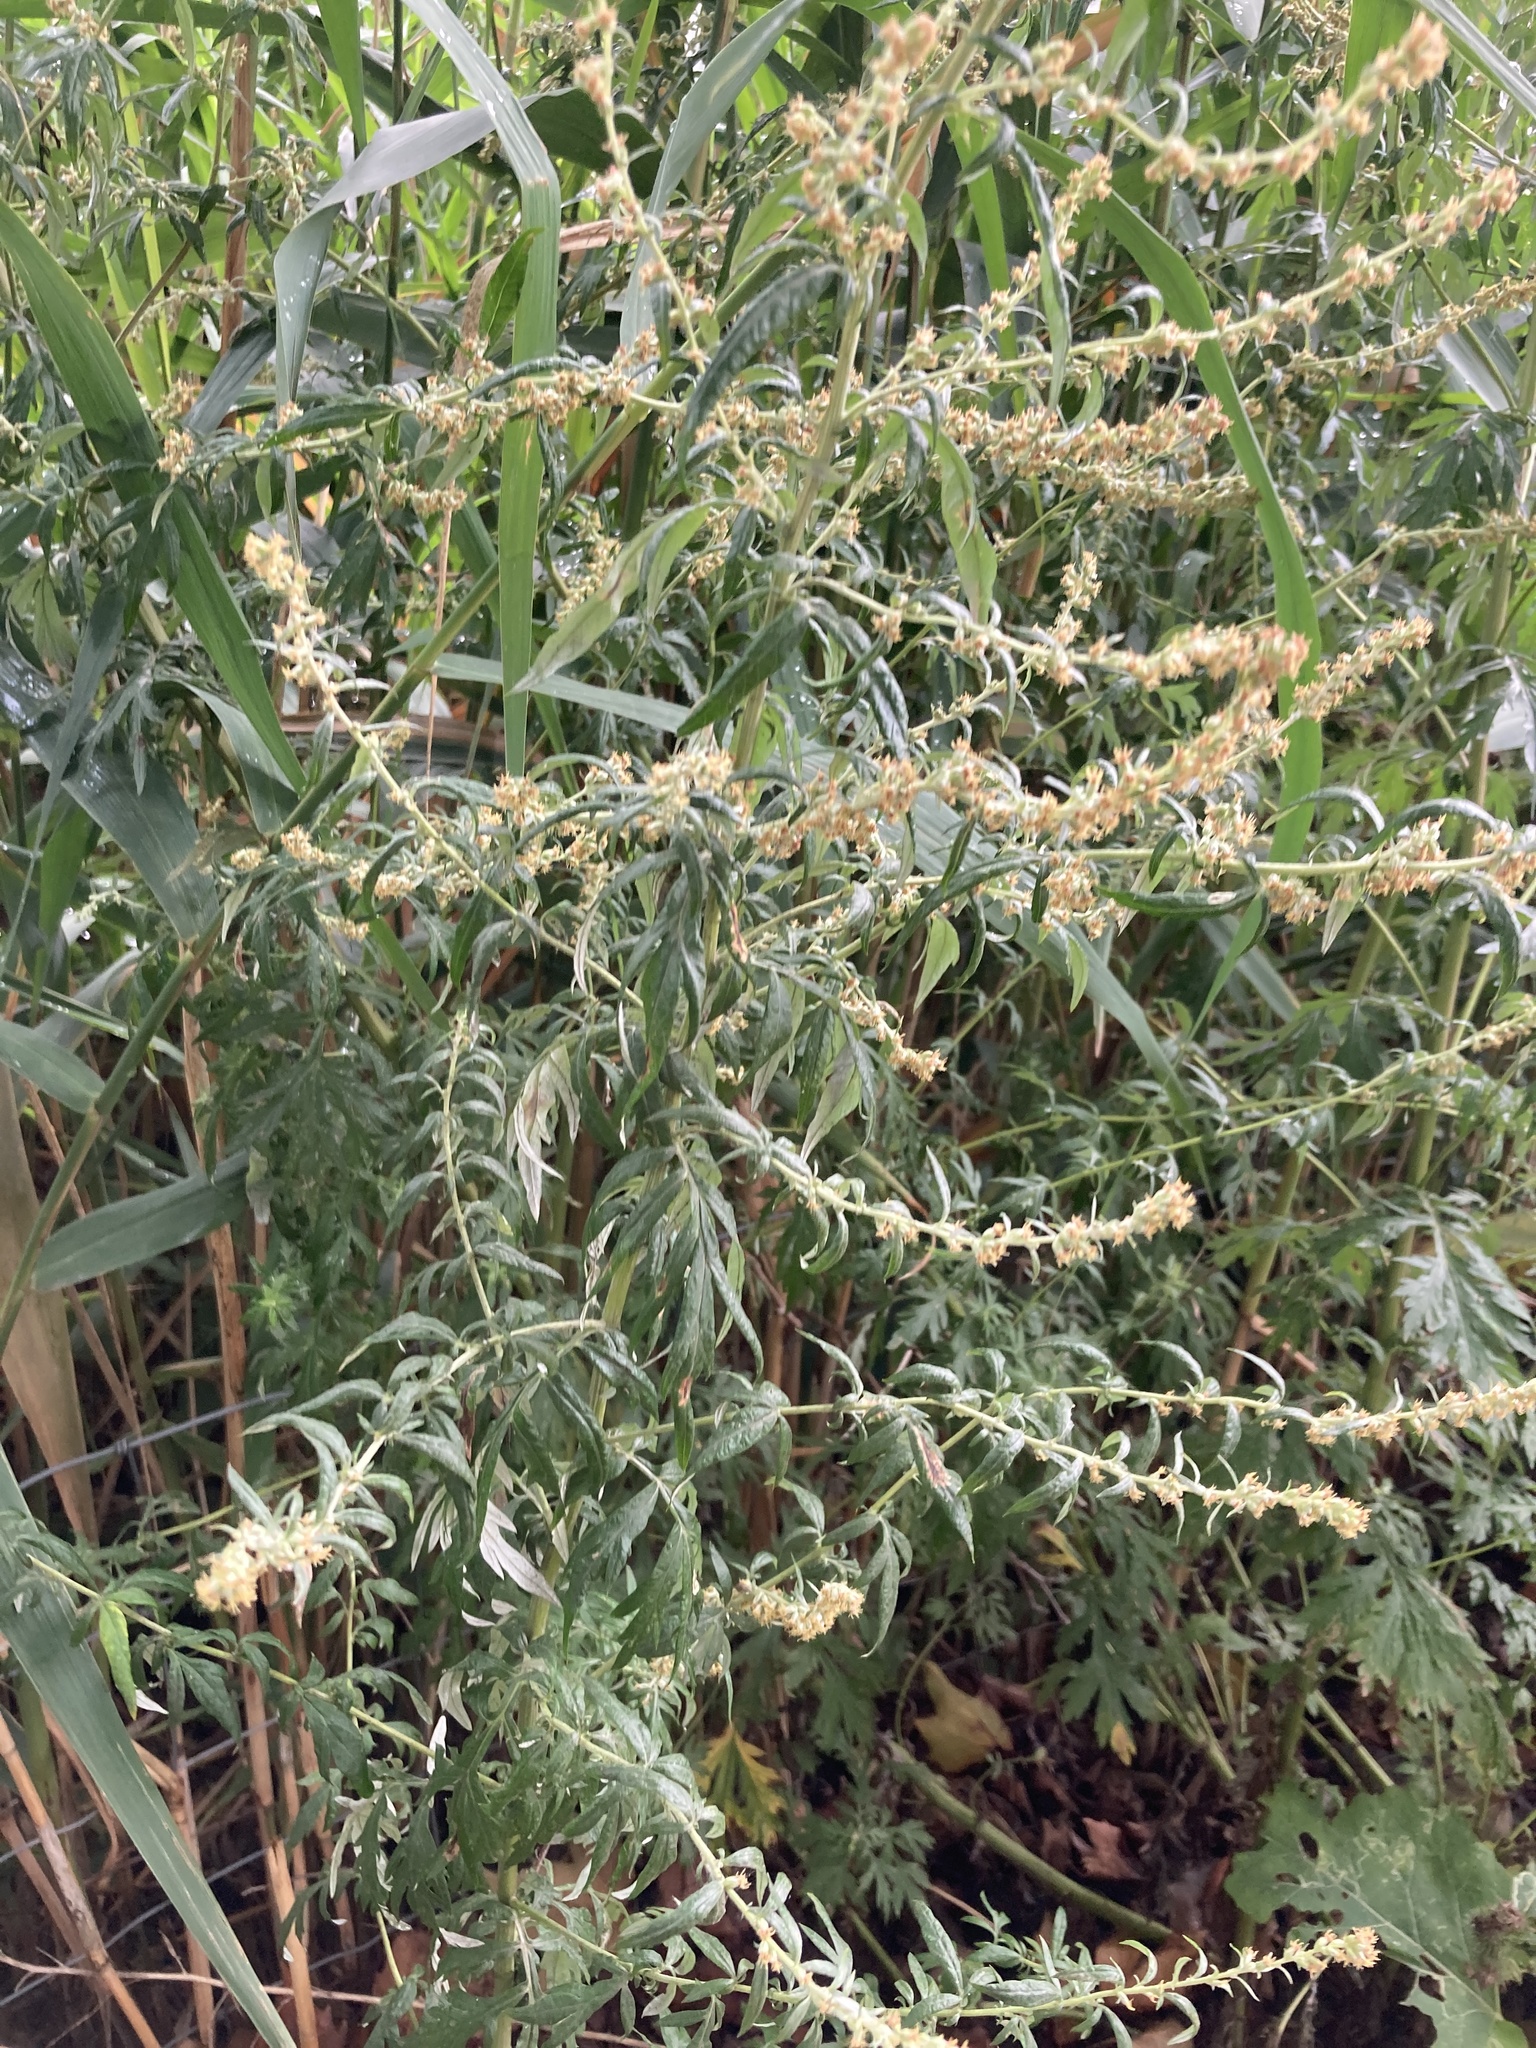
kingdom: Plantae
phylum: Tracheophyta
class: Magnoliopsida
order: Asterales
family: Asteraceae
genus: Artemisia
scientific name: Artemisia vulgaris
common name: Mugwort
